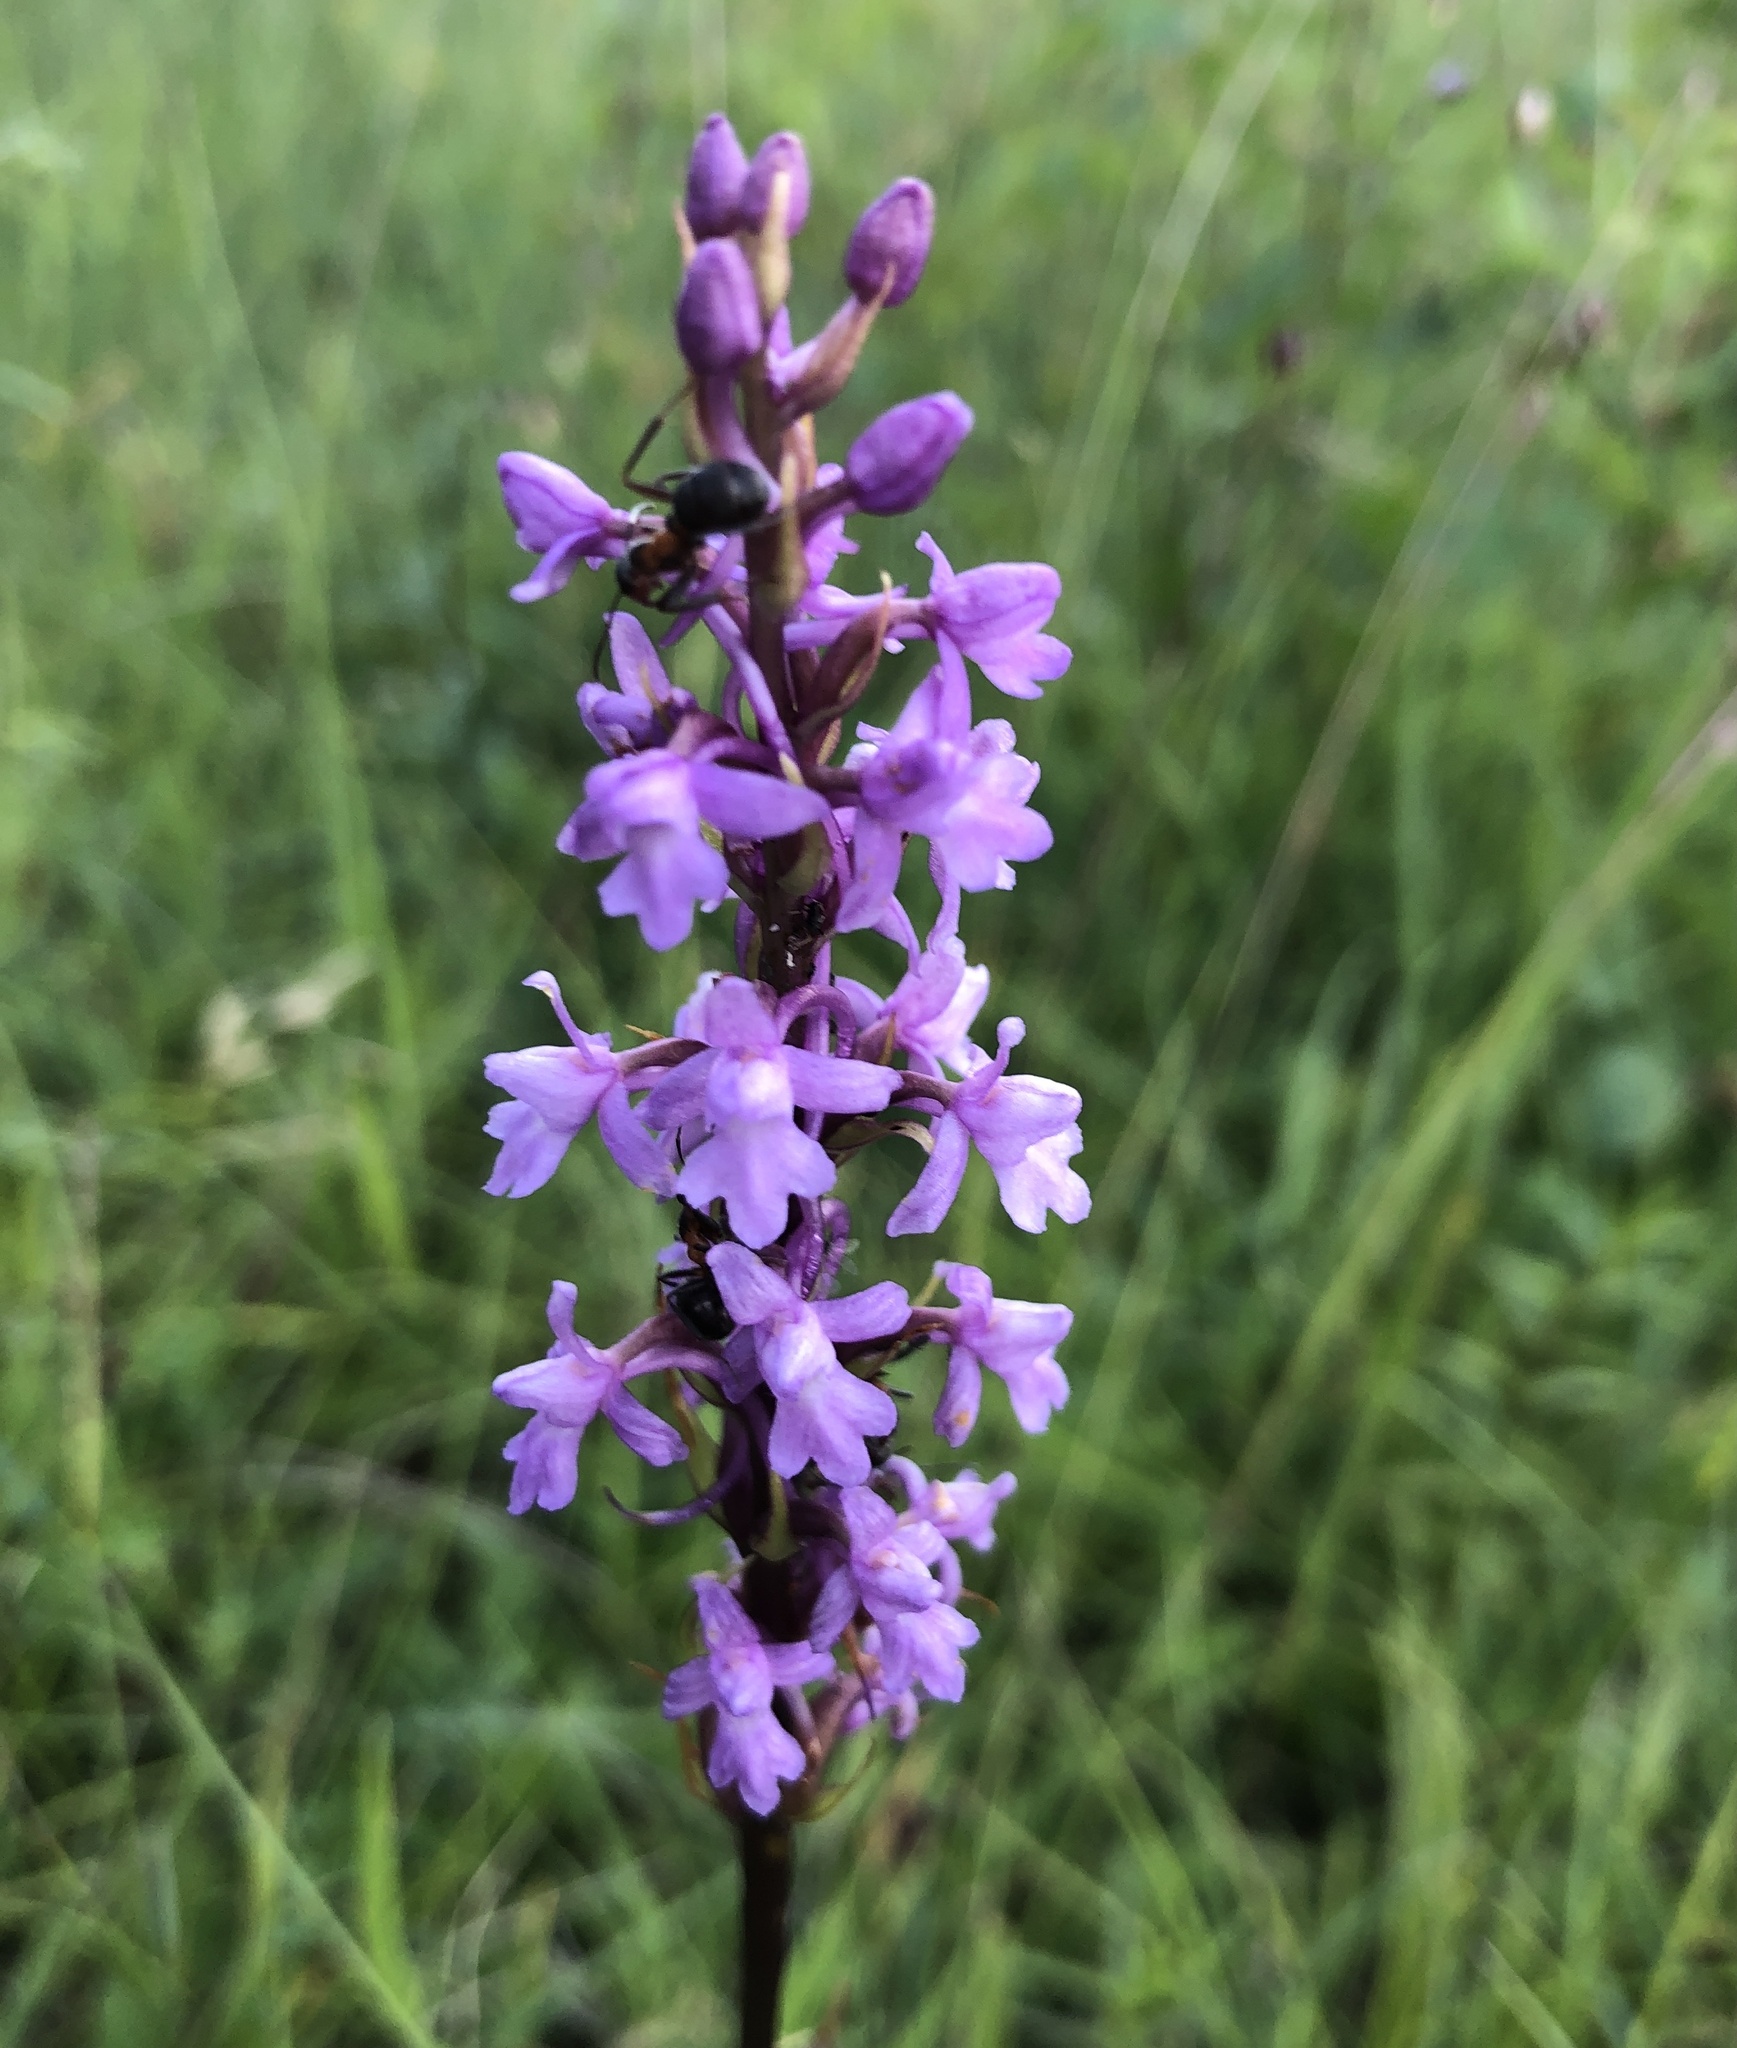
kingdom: Plantae
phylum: Tracheophyta
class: Liliopsida
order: Asparagales
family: Orchidaceae
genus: Gymnadenia
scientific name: Gymnadenia conopsea
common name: Fragrant orchid
